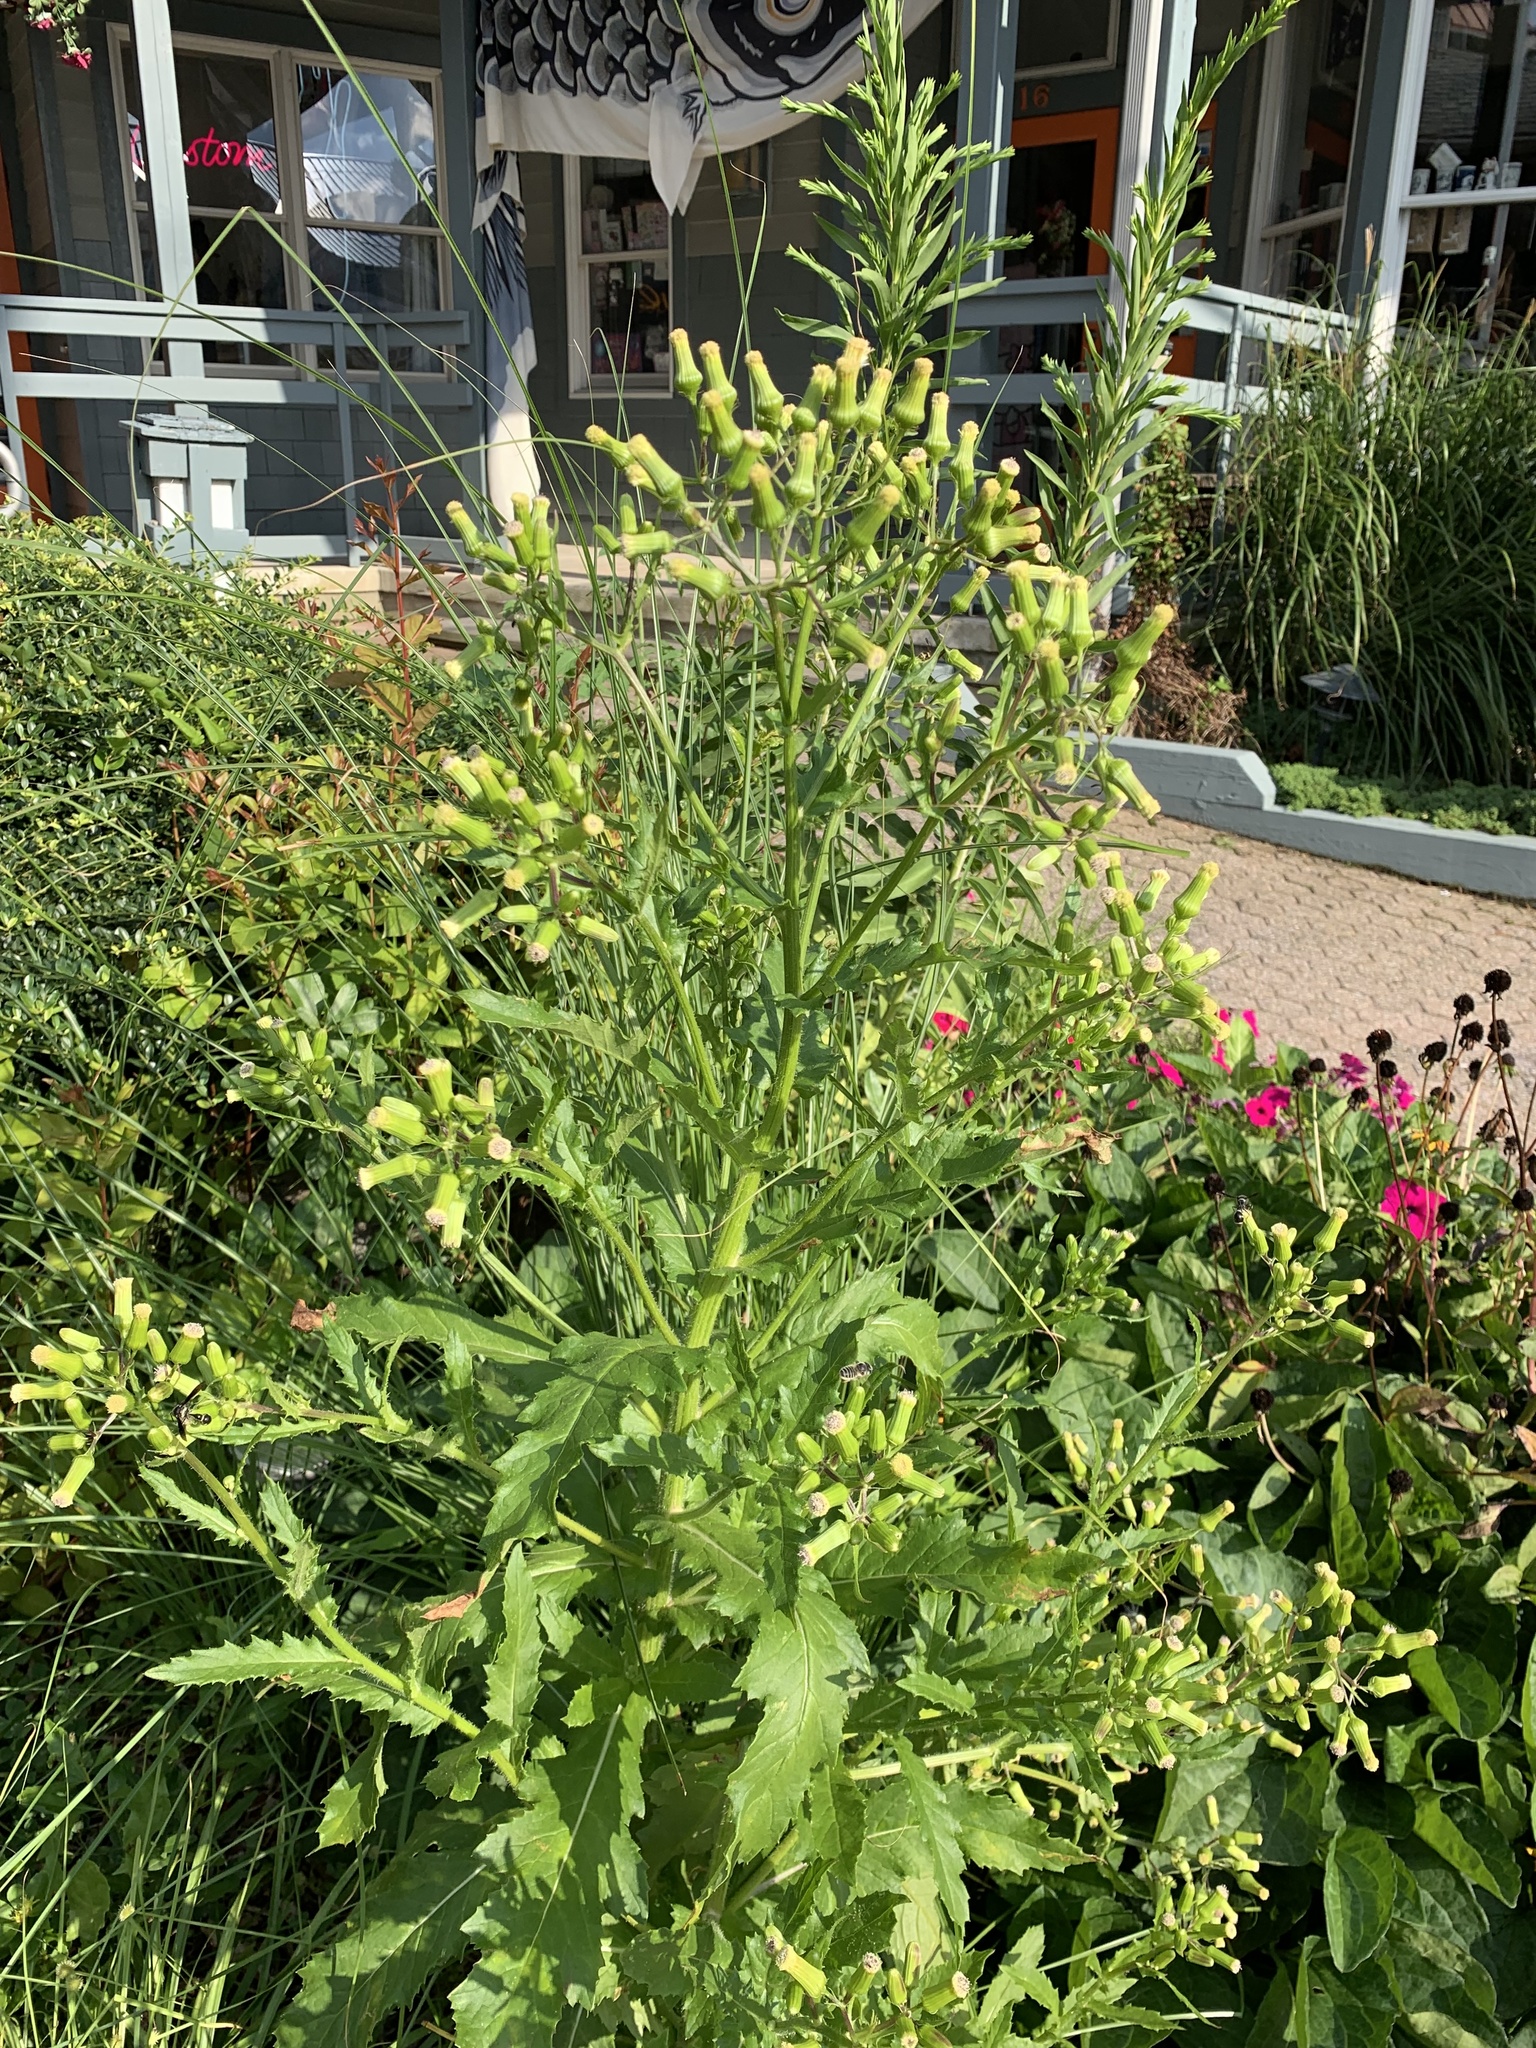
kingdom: Plantae
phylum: Tracheophyta
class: Magnoliopsida
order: Asterales
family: Asteraceae
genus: Erechtites
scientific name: Erechtites hieraciifolius
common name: American burnweed
